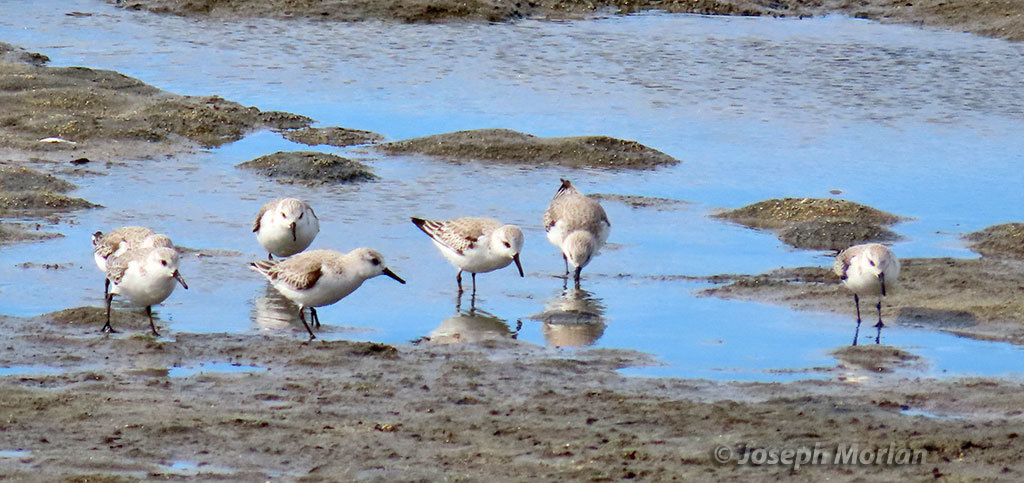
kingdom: Animalia
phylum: Chordata
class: Aves
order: Charadriiformes
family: Scolopacidae
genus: Calidris
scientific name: Calidris alba
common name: Sanderling
